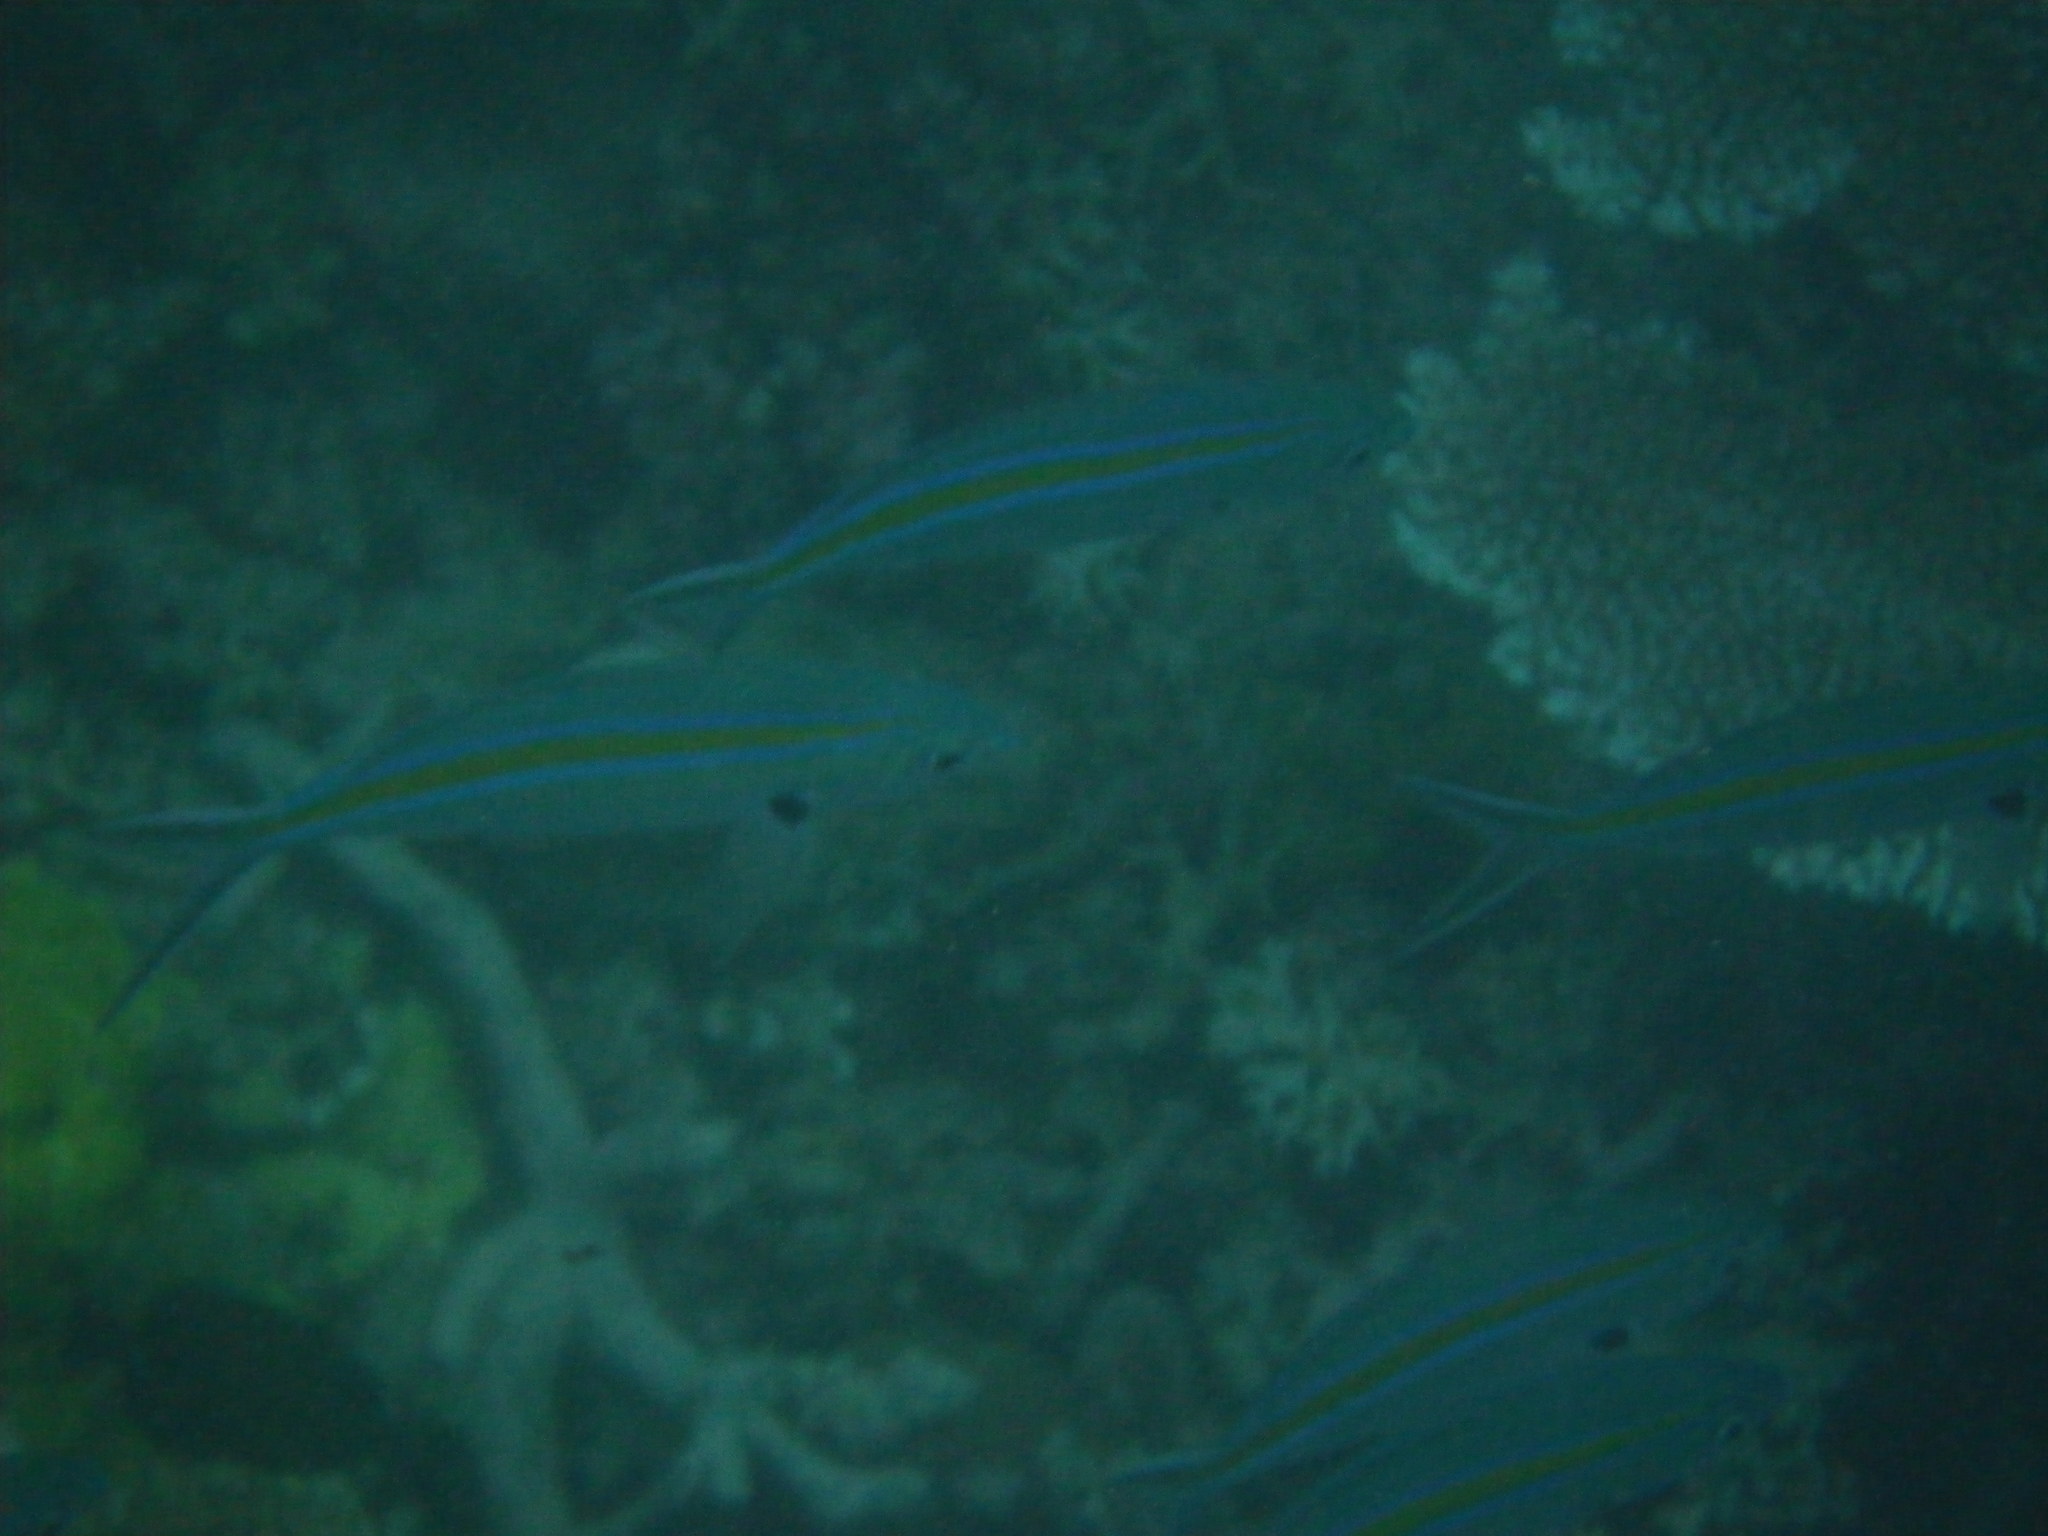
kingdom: Animalia
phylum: Chordata
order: Perciformes
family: Caesionidae
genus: Caesio
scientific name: Caesio caerulaurea
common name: Blue and gold fusilier
